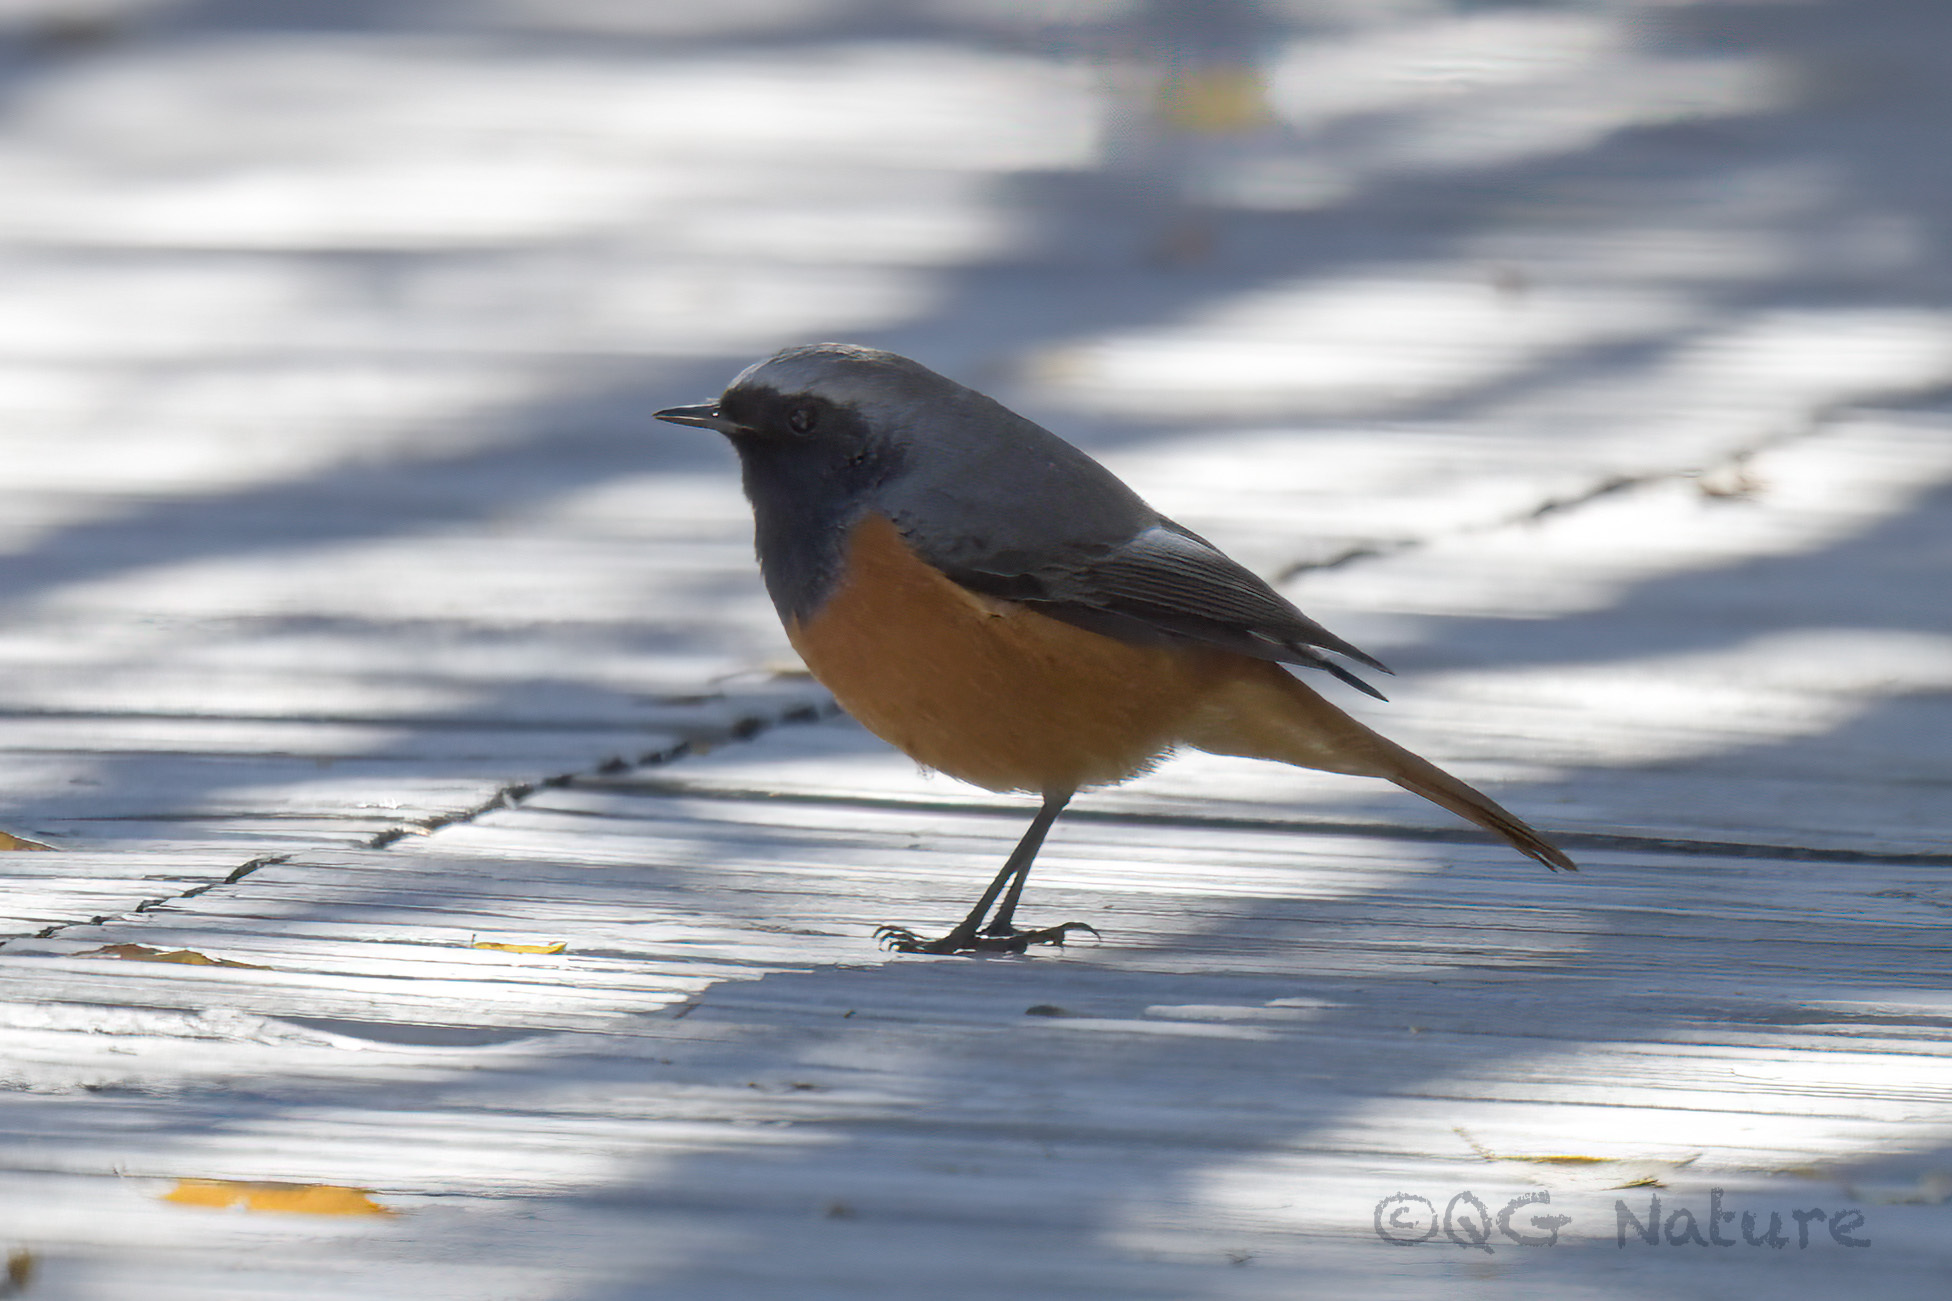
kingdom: Animalia
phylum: Chordata
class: Aves
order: Passeriformes
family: Muscicapidae
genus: Phoenicurus
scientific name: Phoenicurus hodgsoni
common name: Hodgson's redstart
